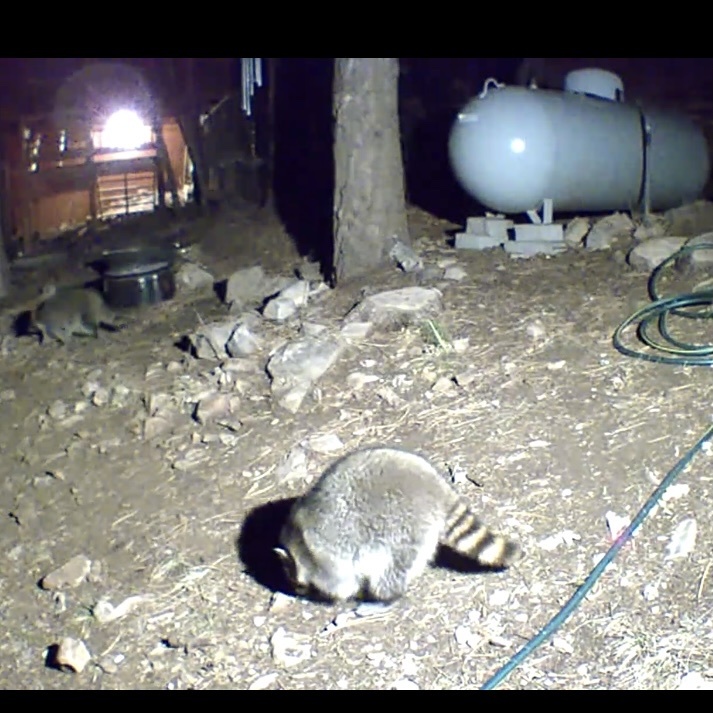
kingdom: Animalia
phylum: Chordata
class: Mammalia
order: Carnivora
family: Procyonidae
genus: Procyon
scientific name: Procyon lotor
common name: Raccoon
